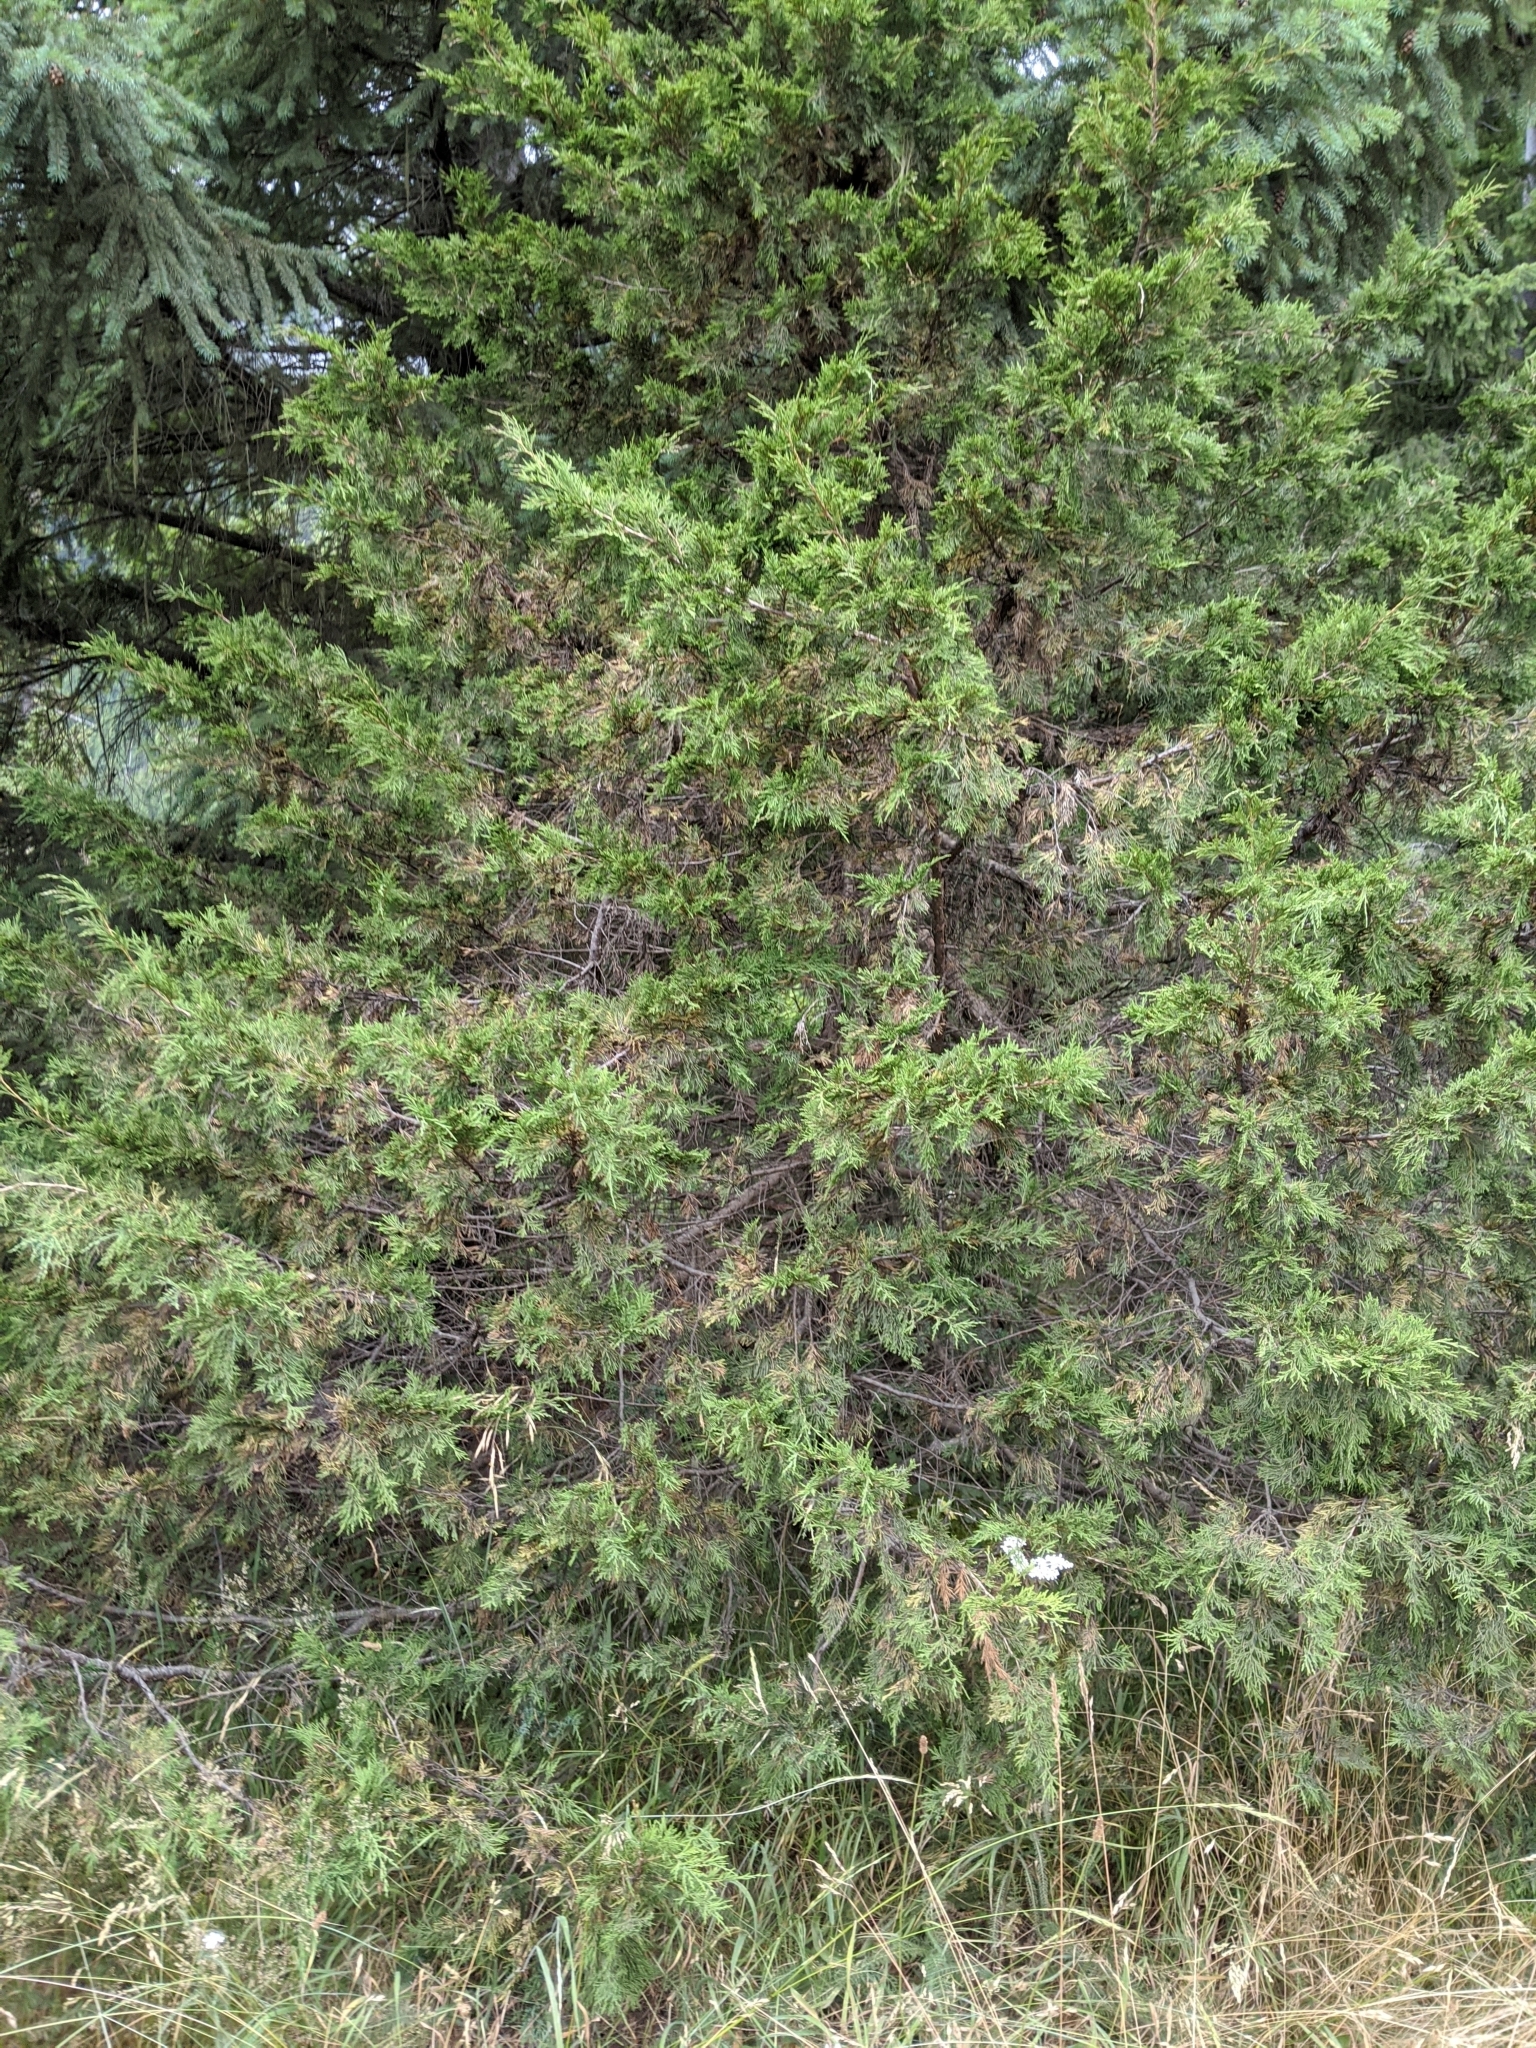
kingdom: Plantae
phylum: Tracheophyta
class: Pinopsida
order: Pinales
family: Cupressaceae
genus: Juniperus
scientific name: Juniperus scopulorum
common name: Rocky mountain juniper
